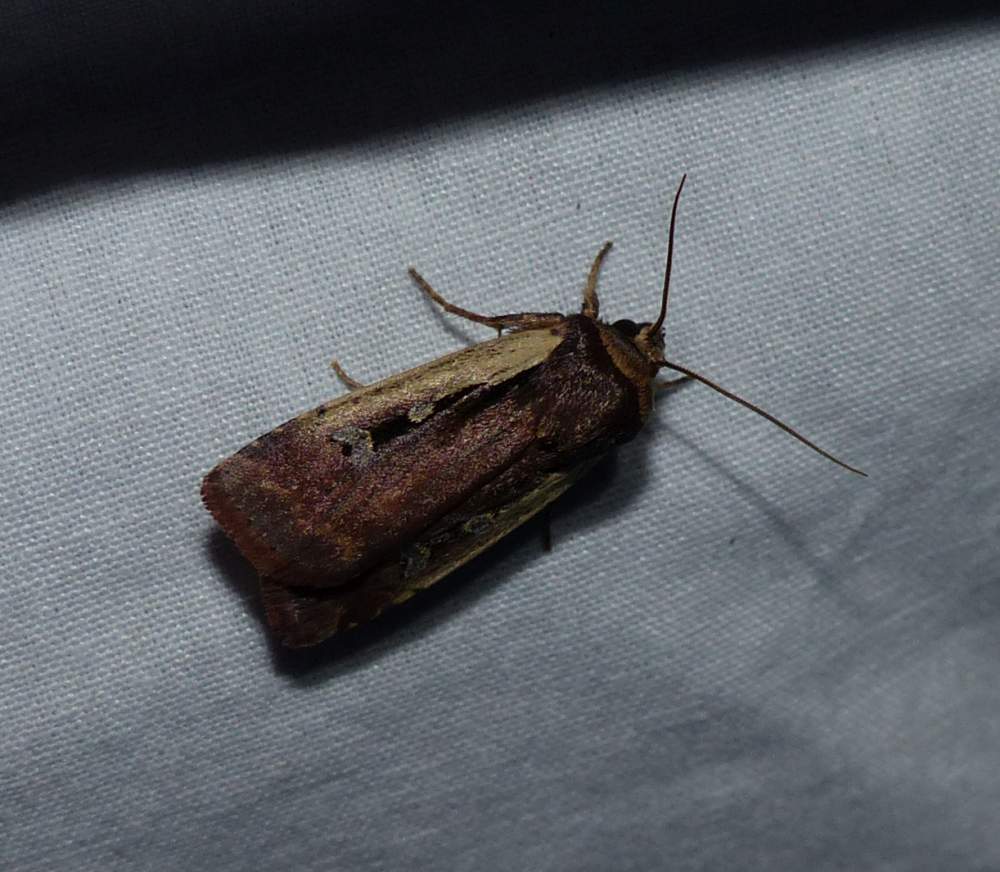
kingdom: Animalia
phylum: Arthropoda
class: Insecta
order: Lepidoptera
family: Noctuidae
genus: Ochropleura
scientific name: Ochropleura implecta
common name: Flame-shouldered dart
